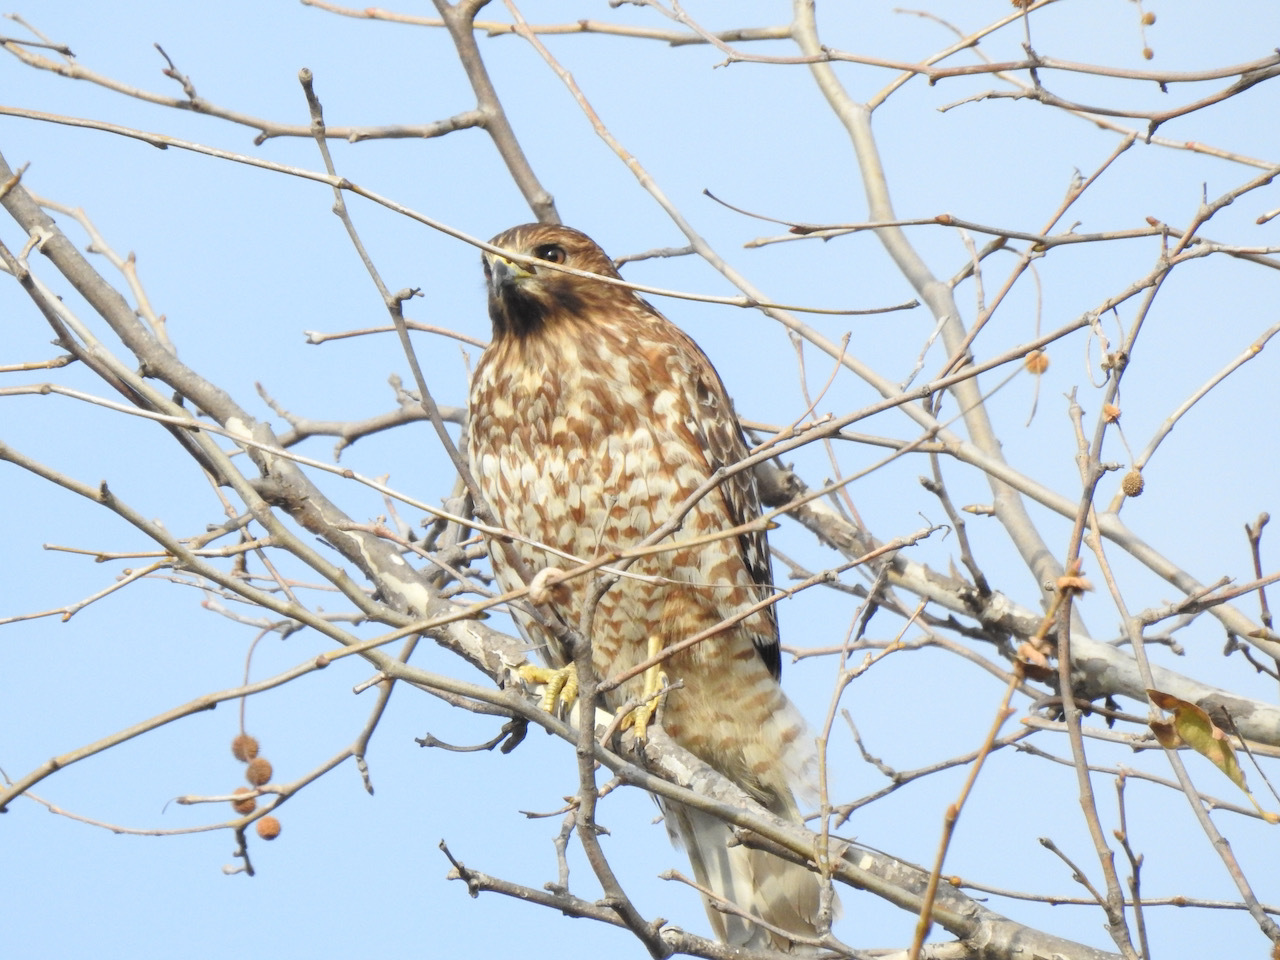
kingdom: Animalia
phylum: Chordata
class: Aves
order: Accipitriformes
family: Accipitridae
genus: Buteo
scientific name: Buteo lineatus
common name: Red-shouldered hawk
